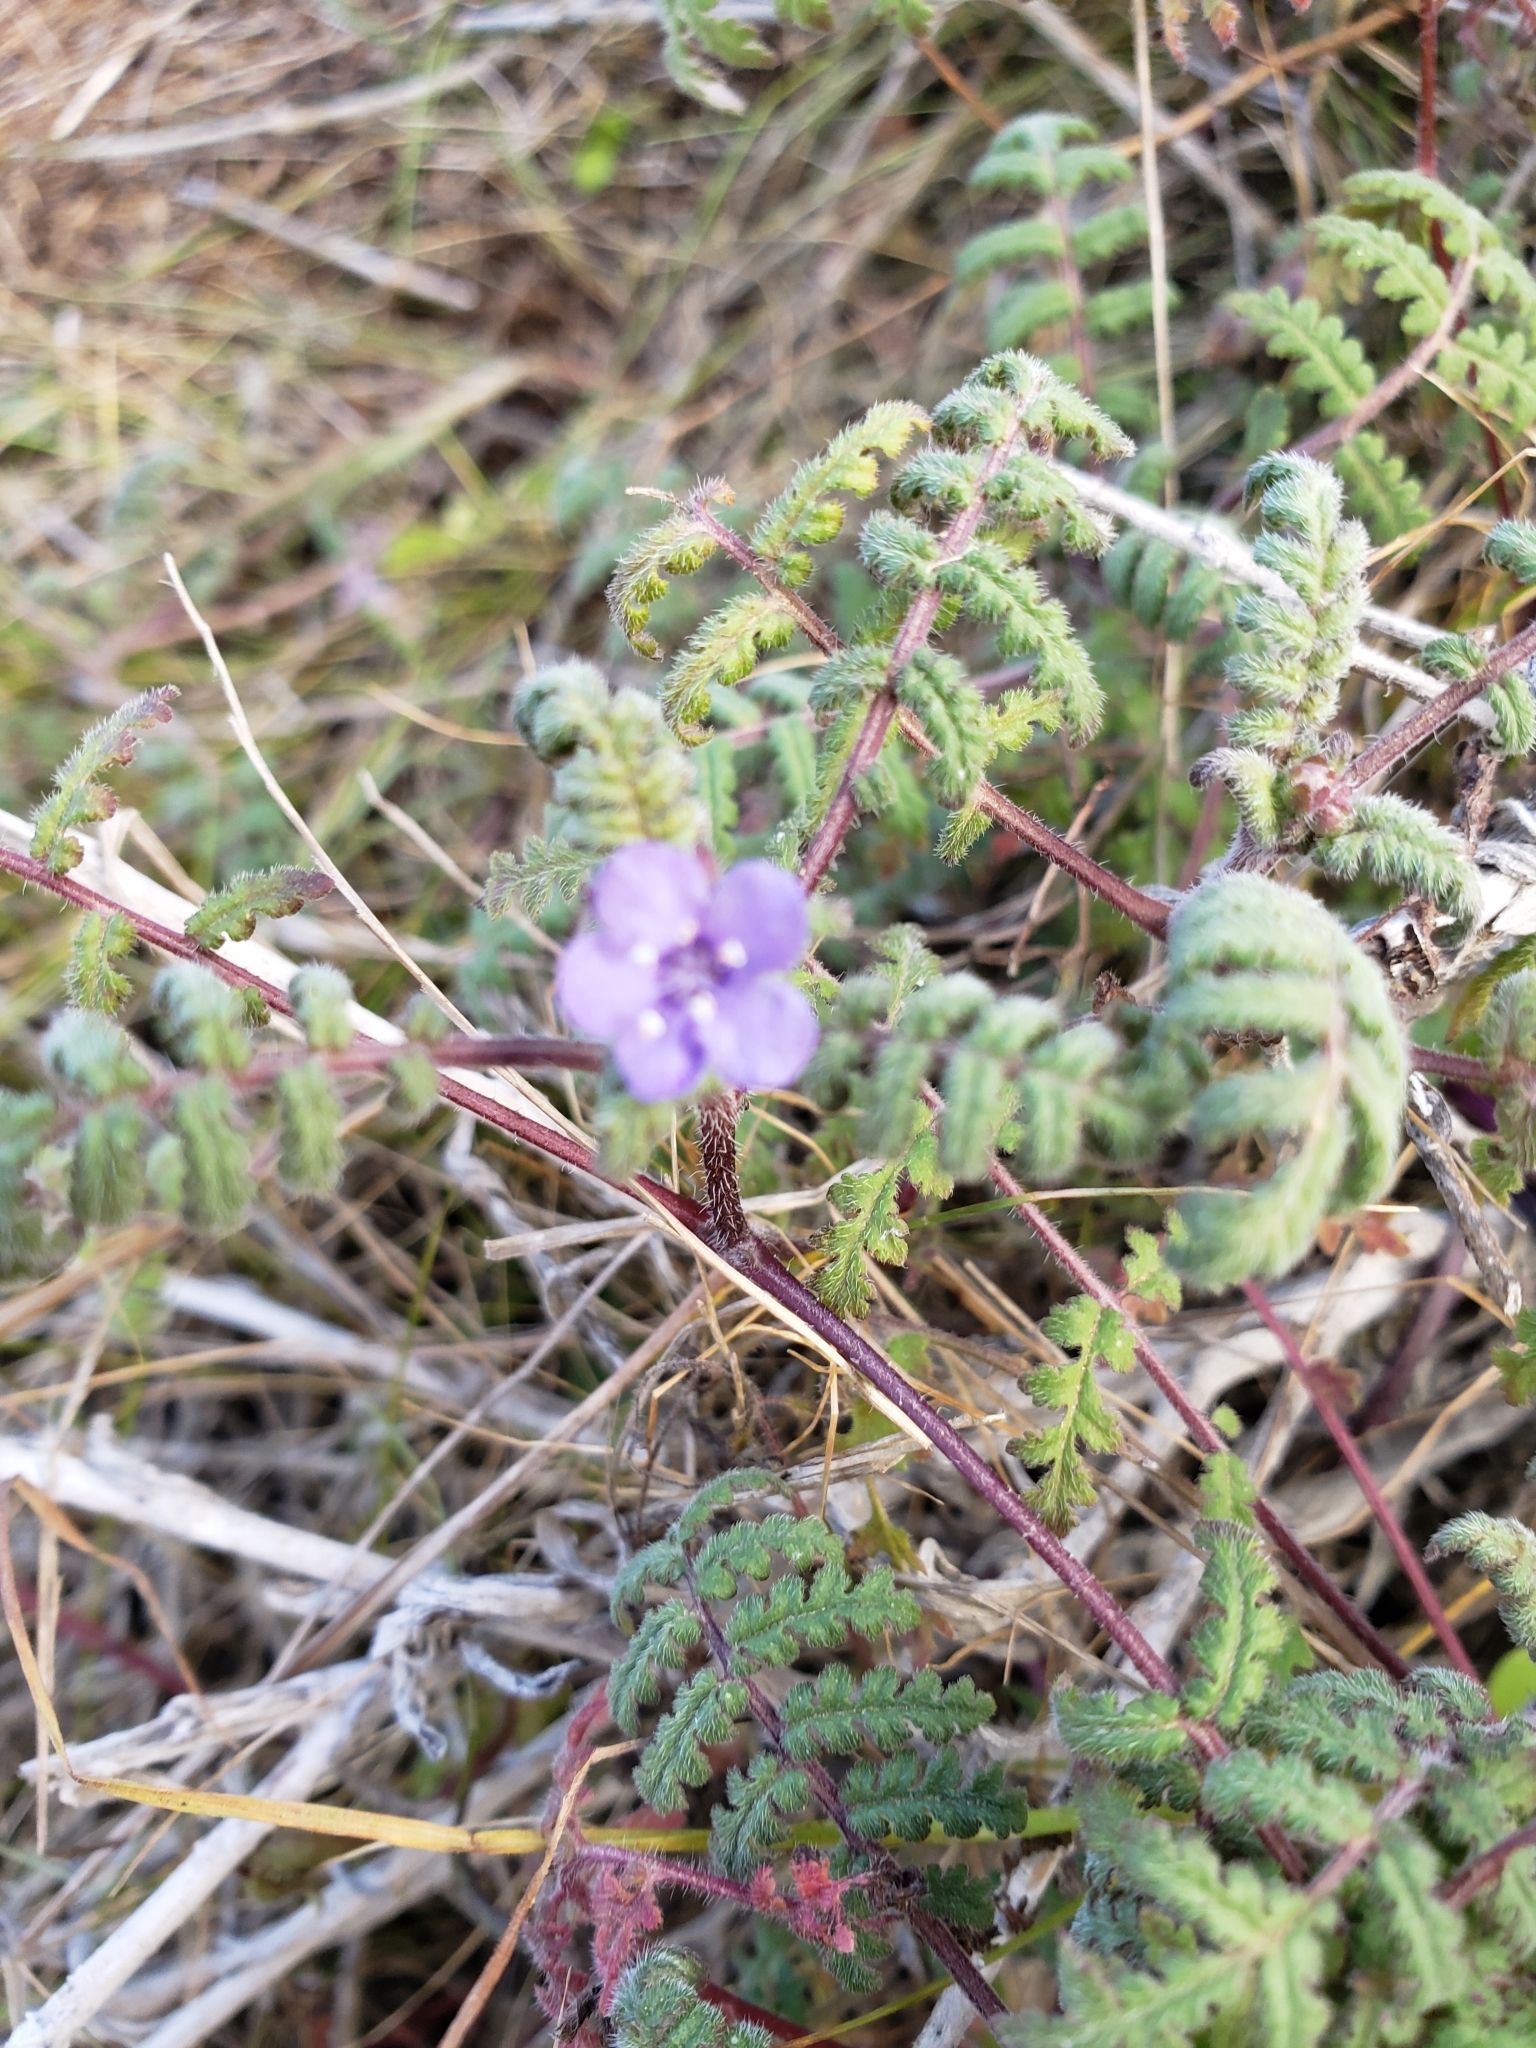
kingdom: Plantae
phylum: Tracheophyta
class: Magnoliopsida
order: Boraginales
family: Hydrophyllaceae
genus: Phacelia
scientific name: Phacelia distans
